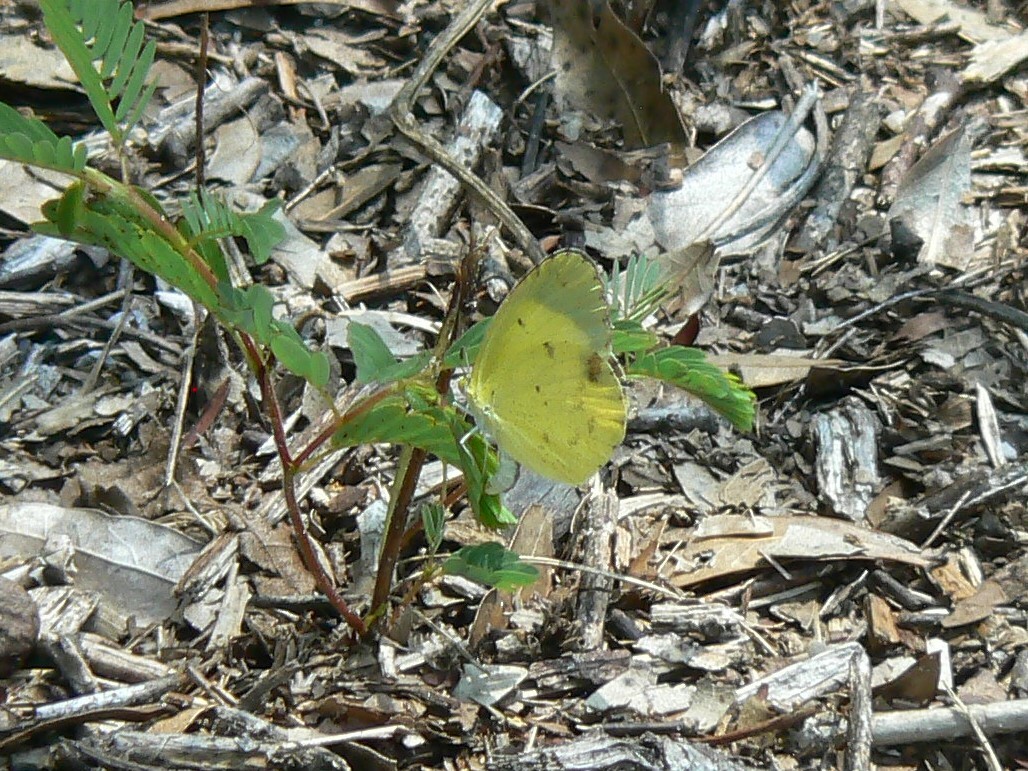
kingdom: Animalia
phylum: Arthropoda
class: Insecta
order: Lepidoptera
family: Pieridae
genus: Pyrisitia
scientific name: Pyrisitia lisa
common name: Little yellow
